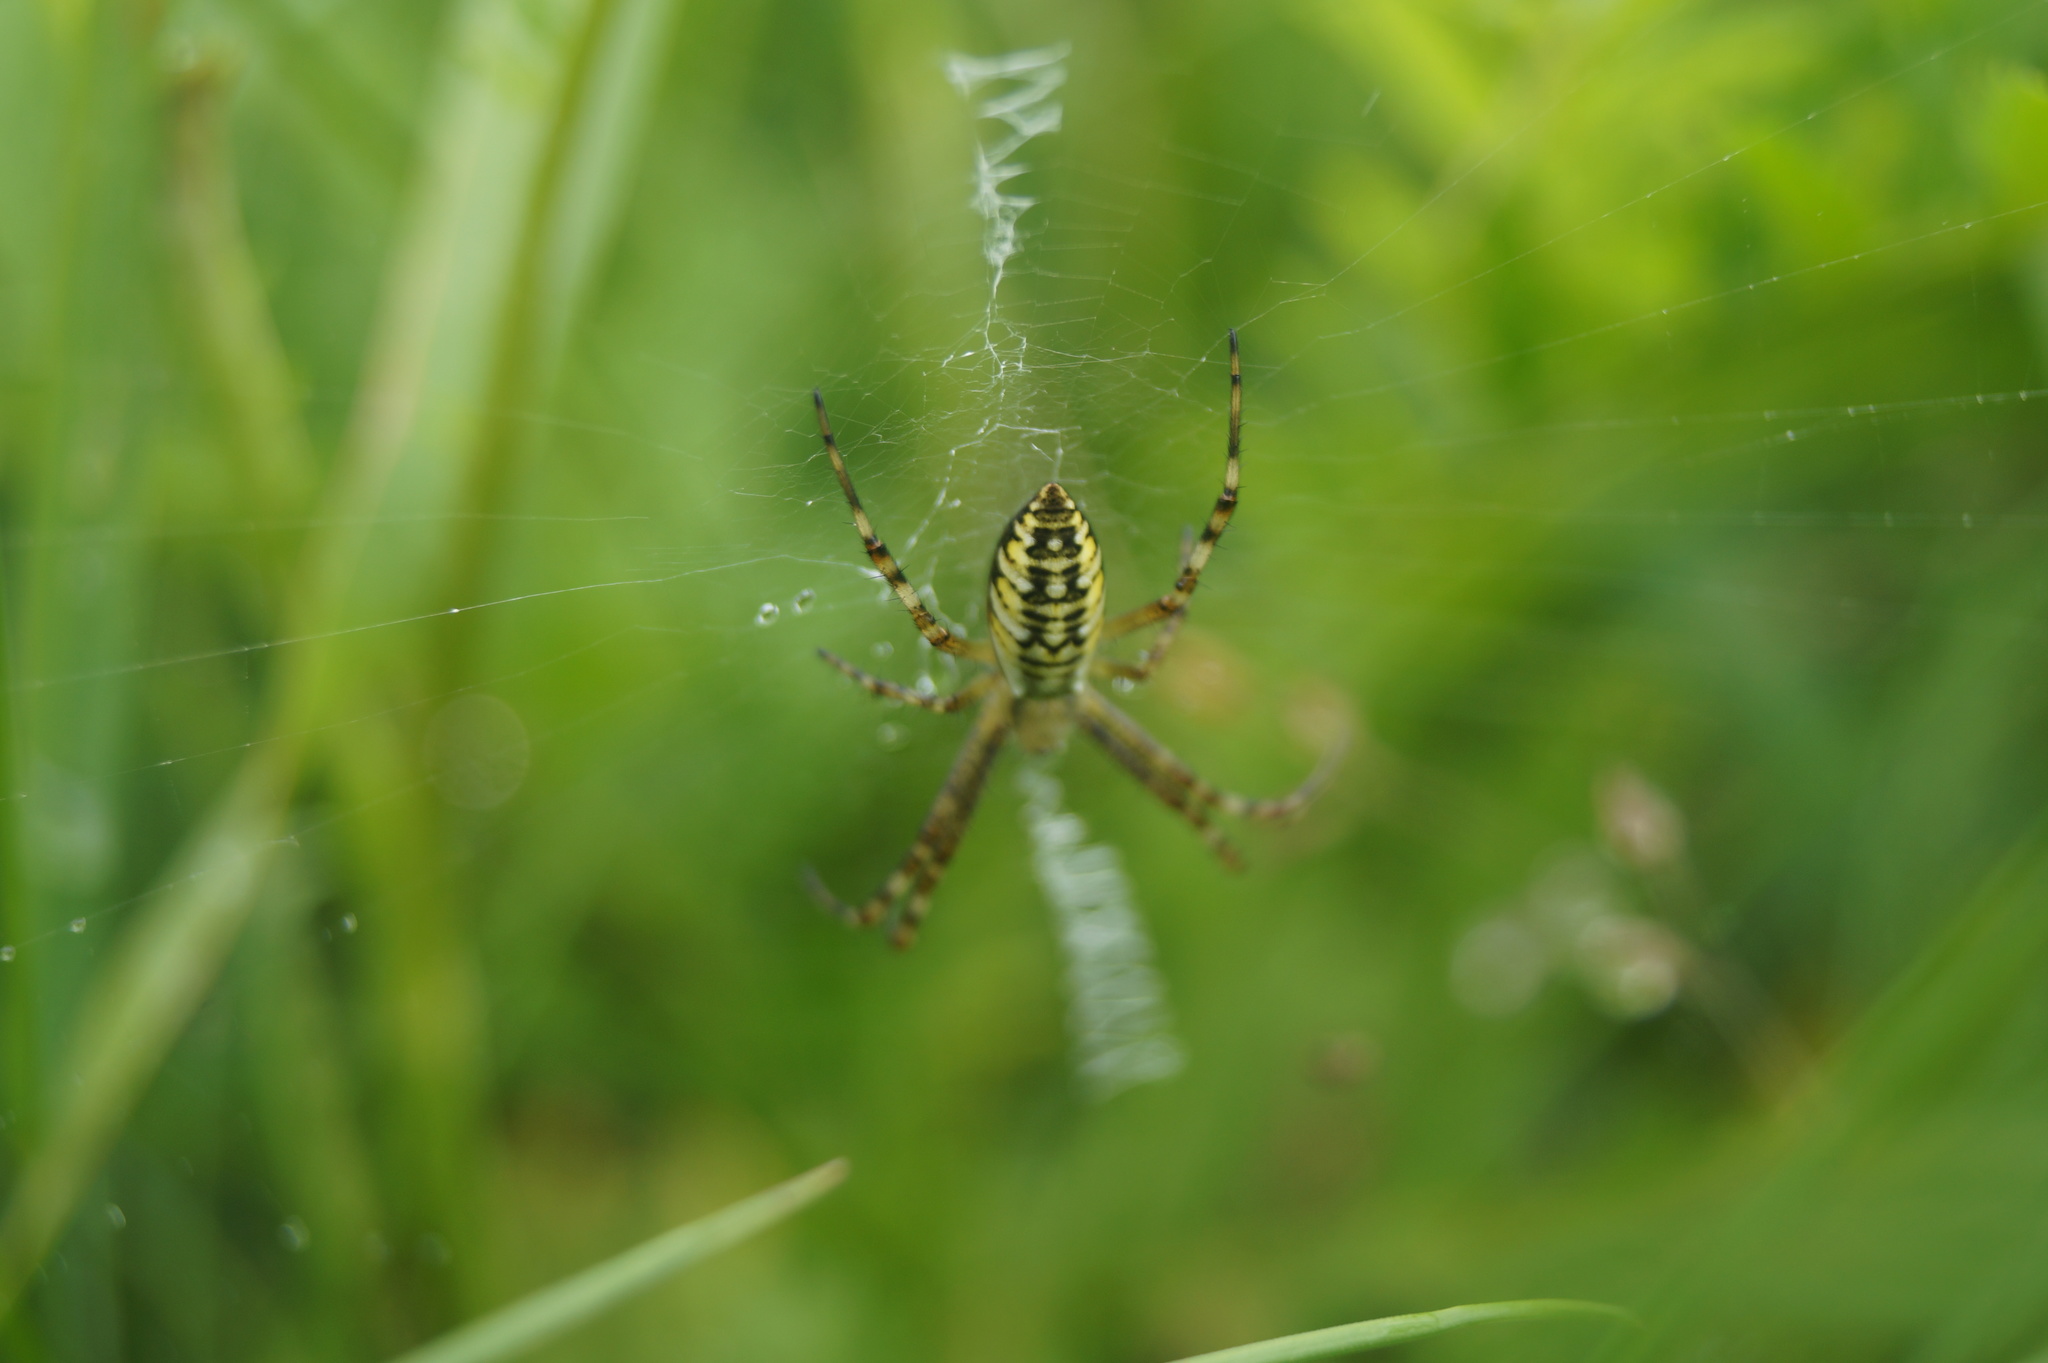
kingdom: Animalia
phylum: Arthropoda
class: Arachnida
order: Araneae
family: Araneidae
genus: Argiope
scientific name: Argiope bruennichi
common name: Wasp spider
